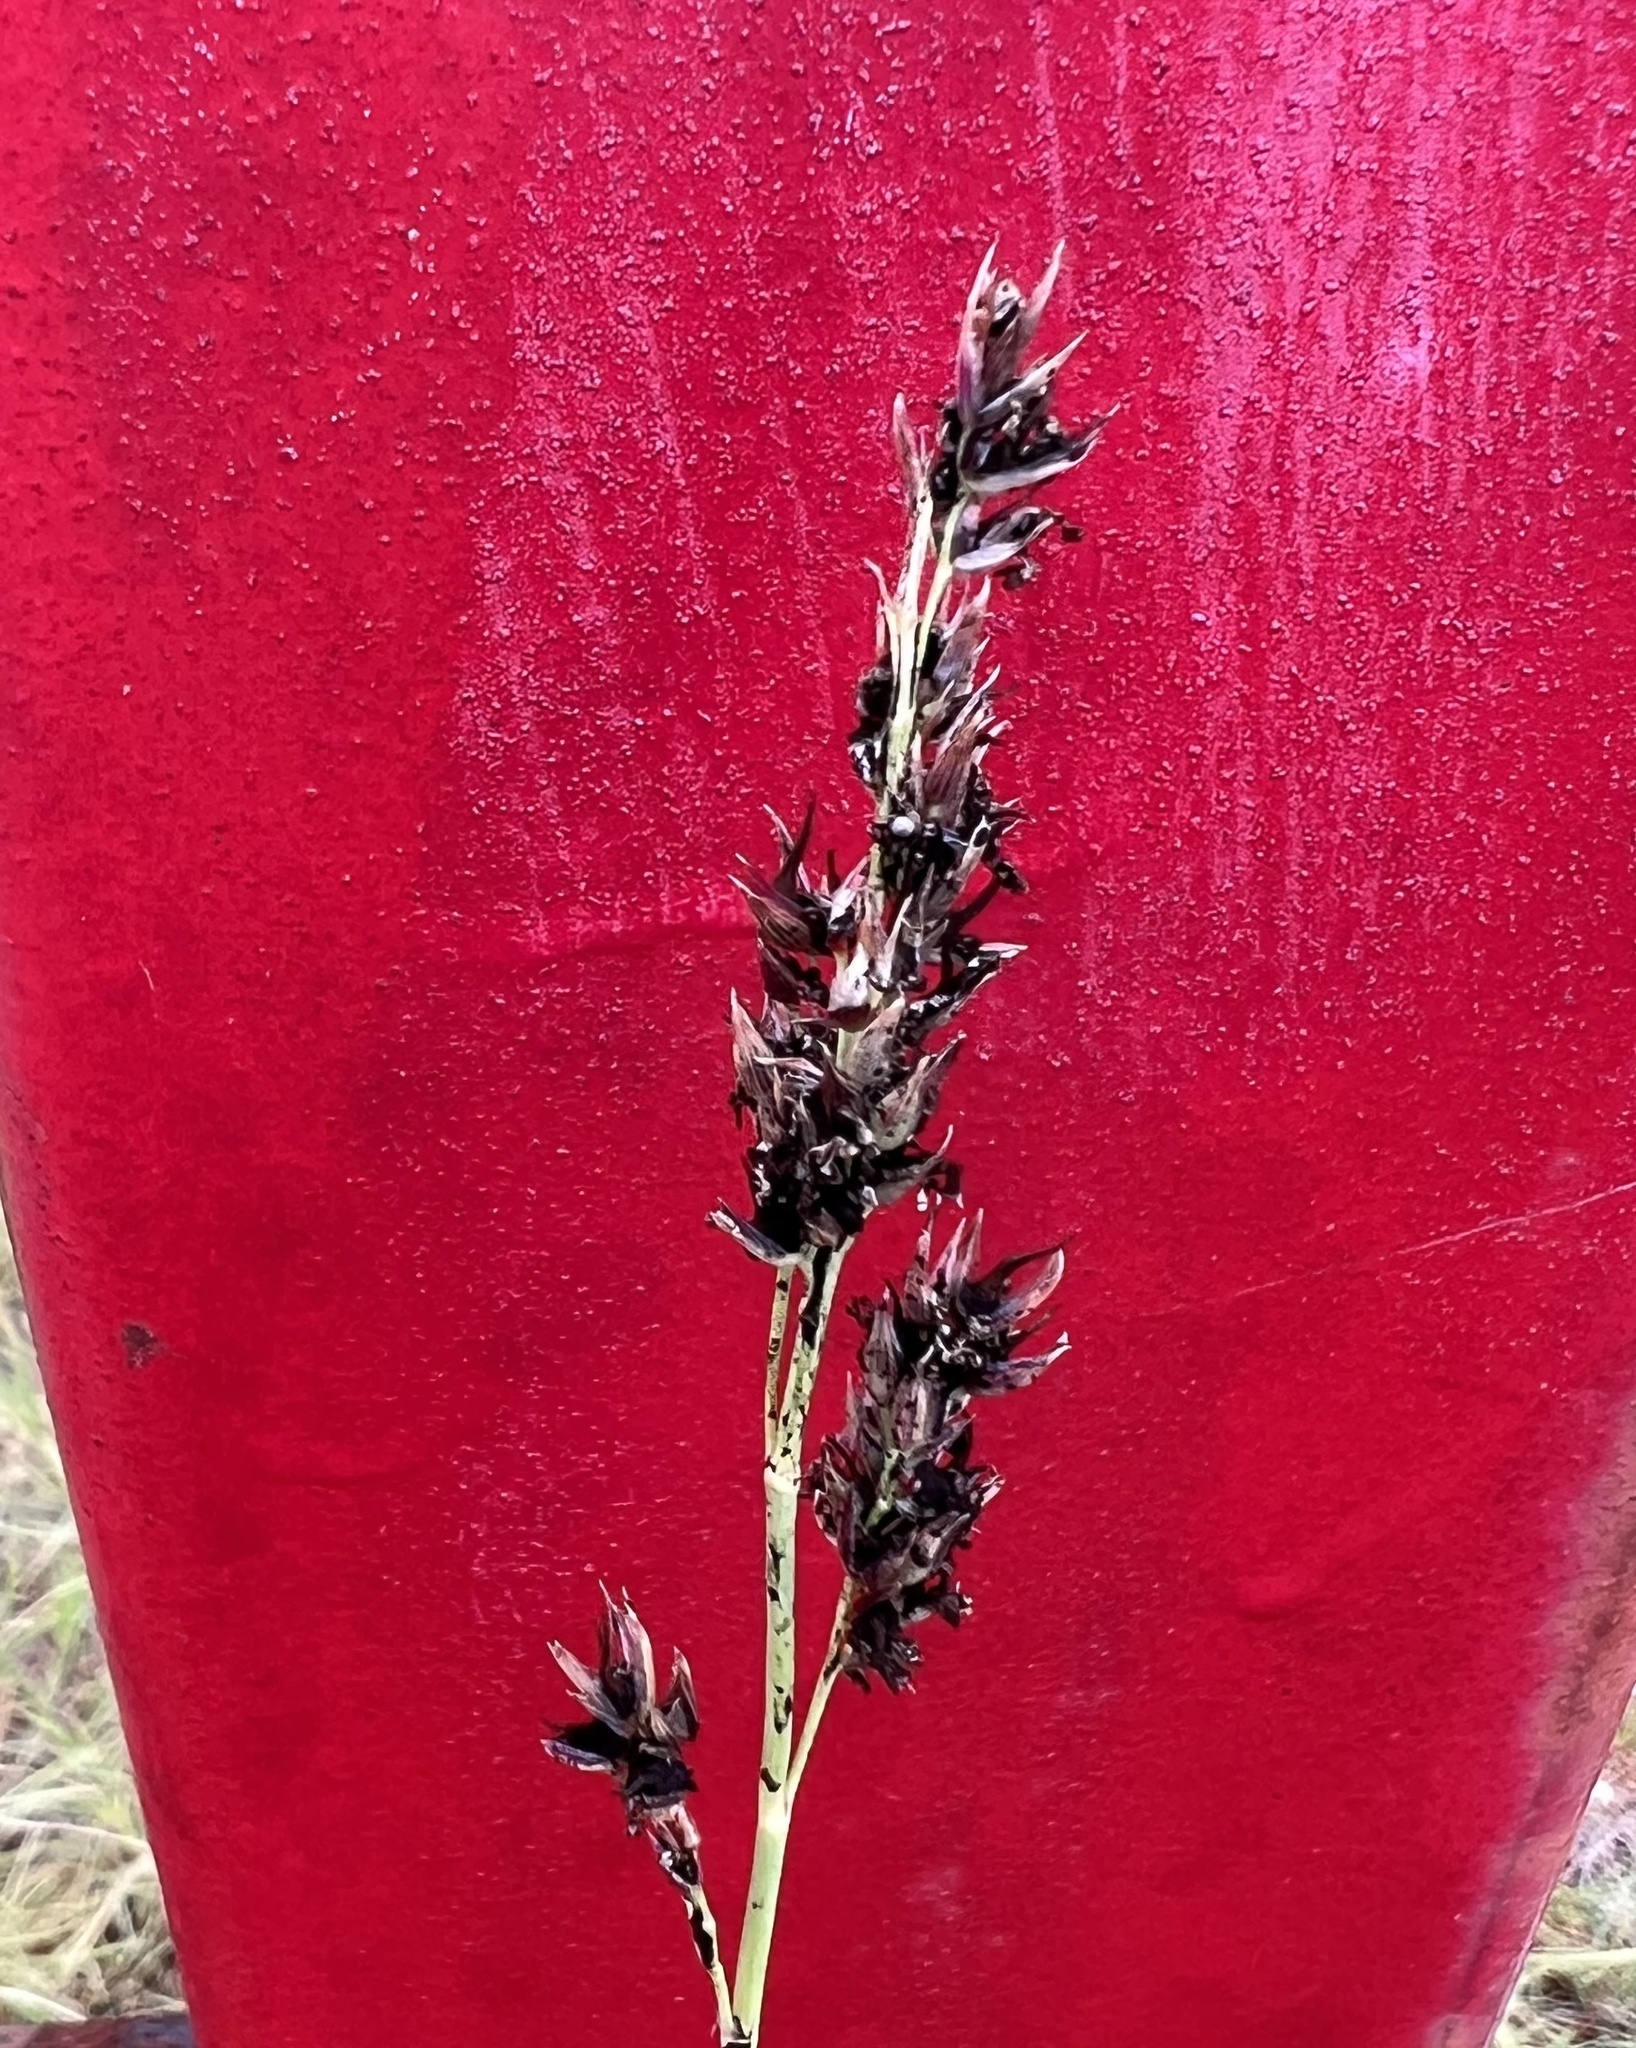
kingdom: Plantae
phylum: Tracheophyta
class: Liliopsida
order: Poales
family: Poaceae
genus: Sorghum
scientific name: Sorghum halepense
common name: Johnson-grass
